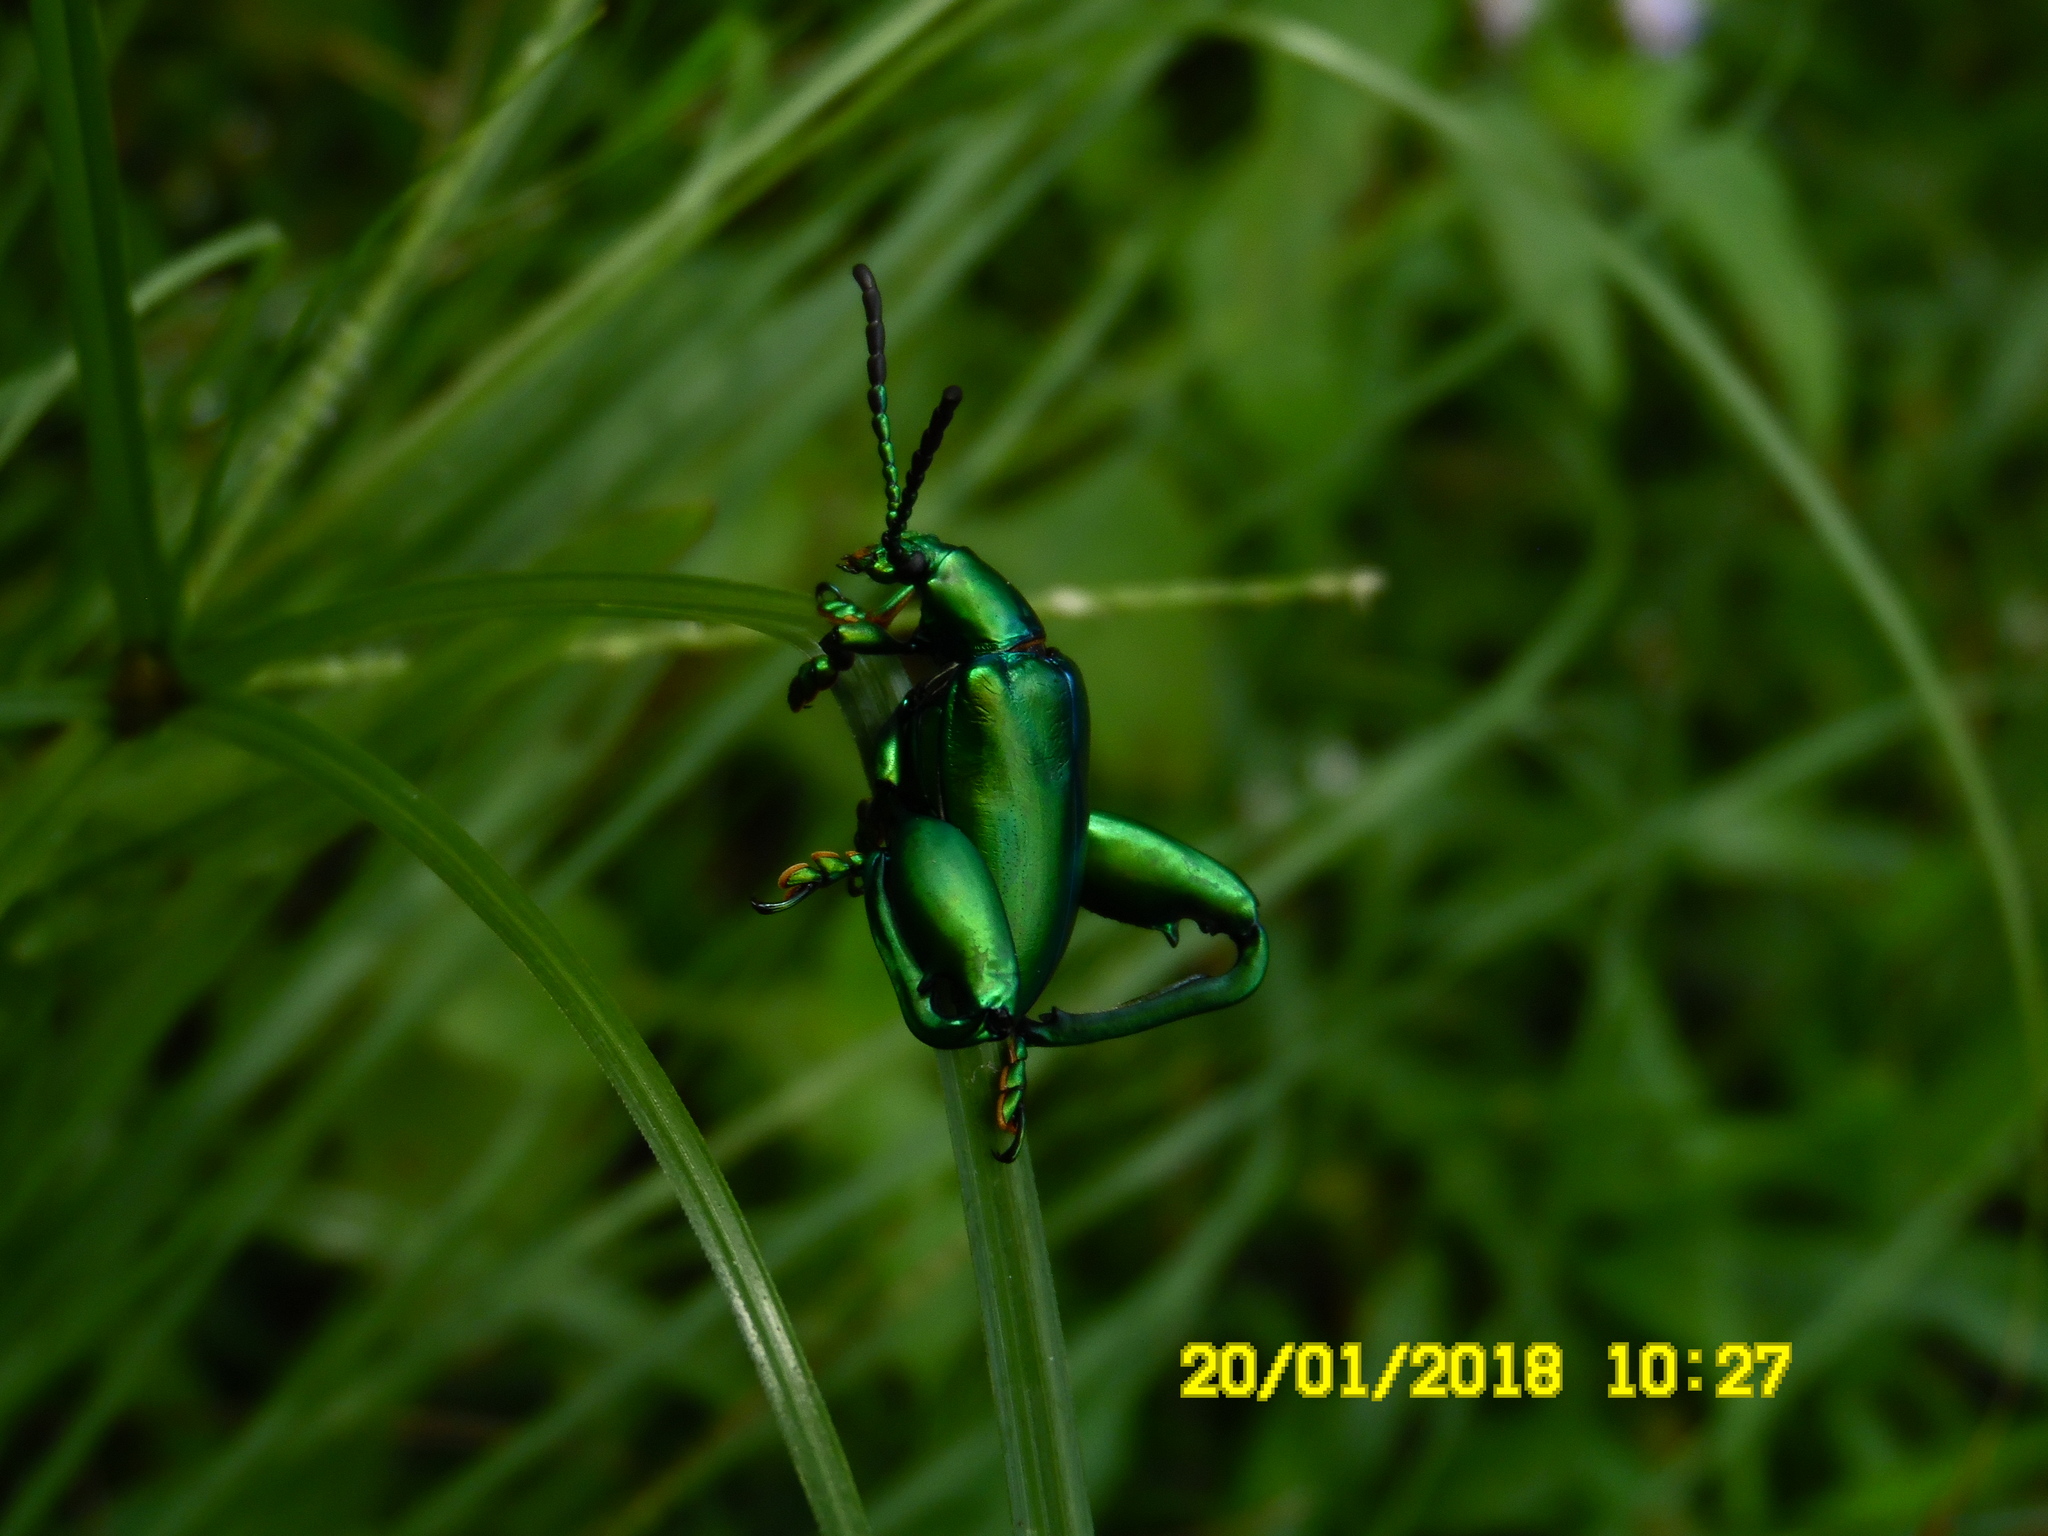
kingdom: Animalia
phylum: Arthropoda
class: Insecta
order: Coleoptera
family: Chrysomelidae
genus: Sagra
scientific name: Sagra femorata
